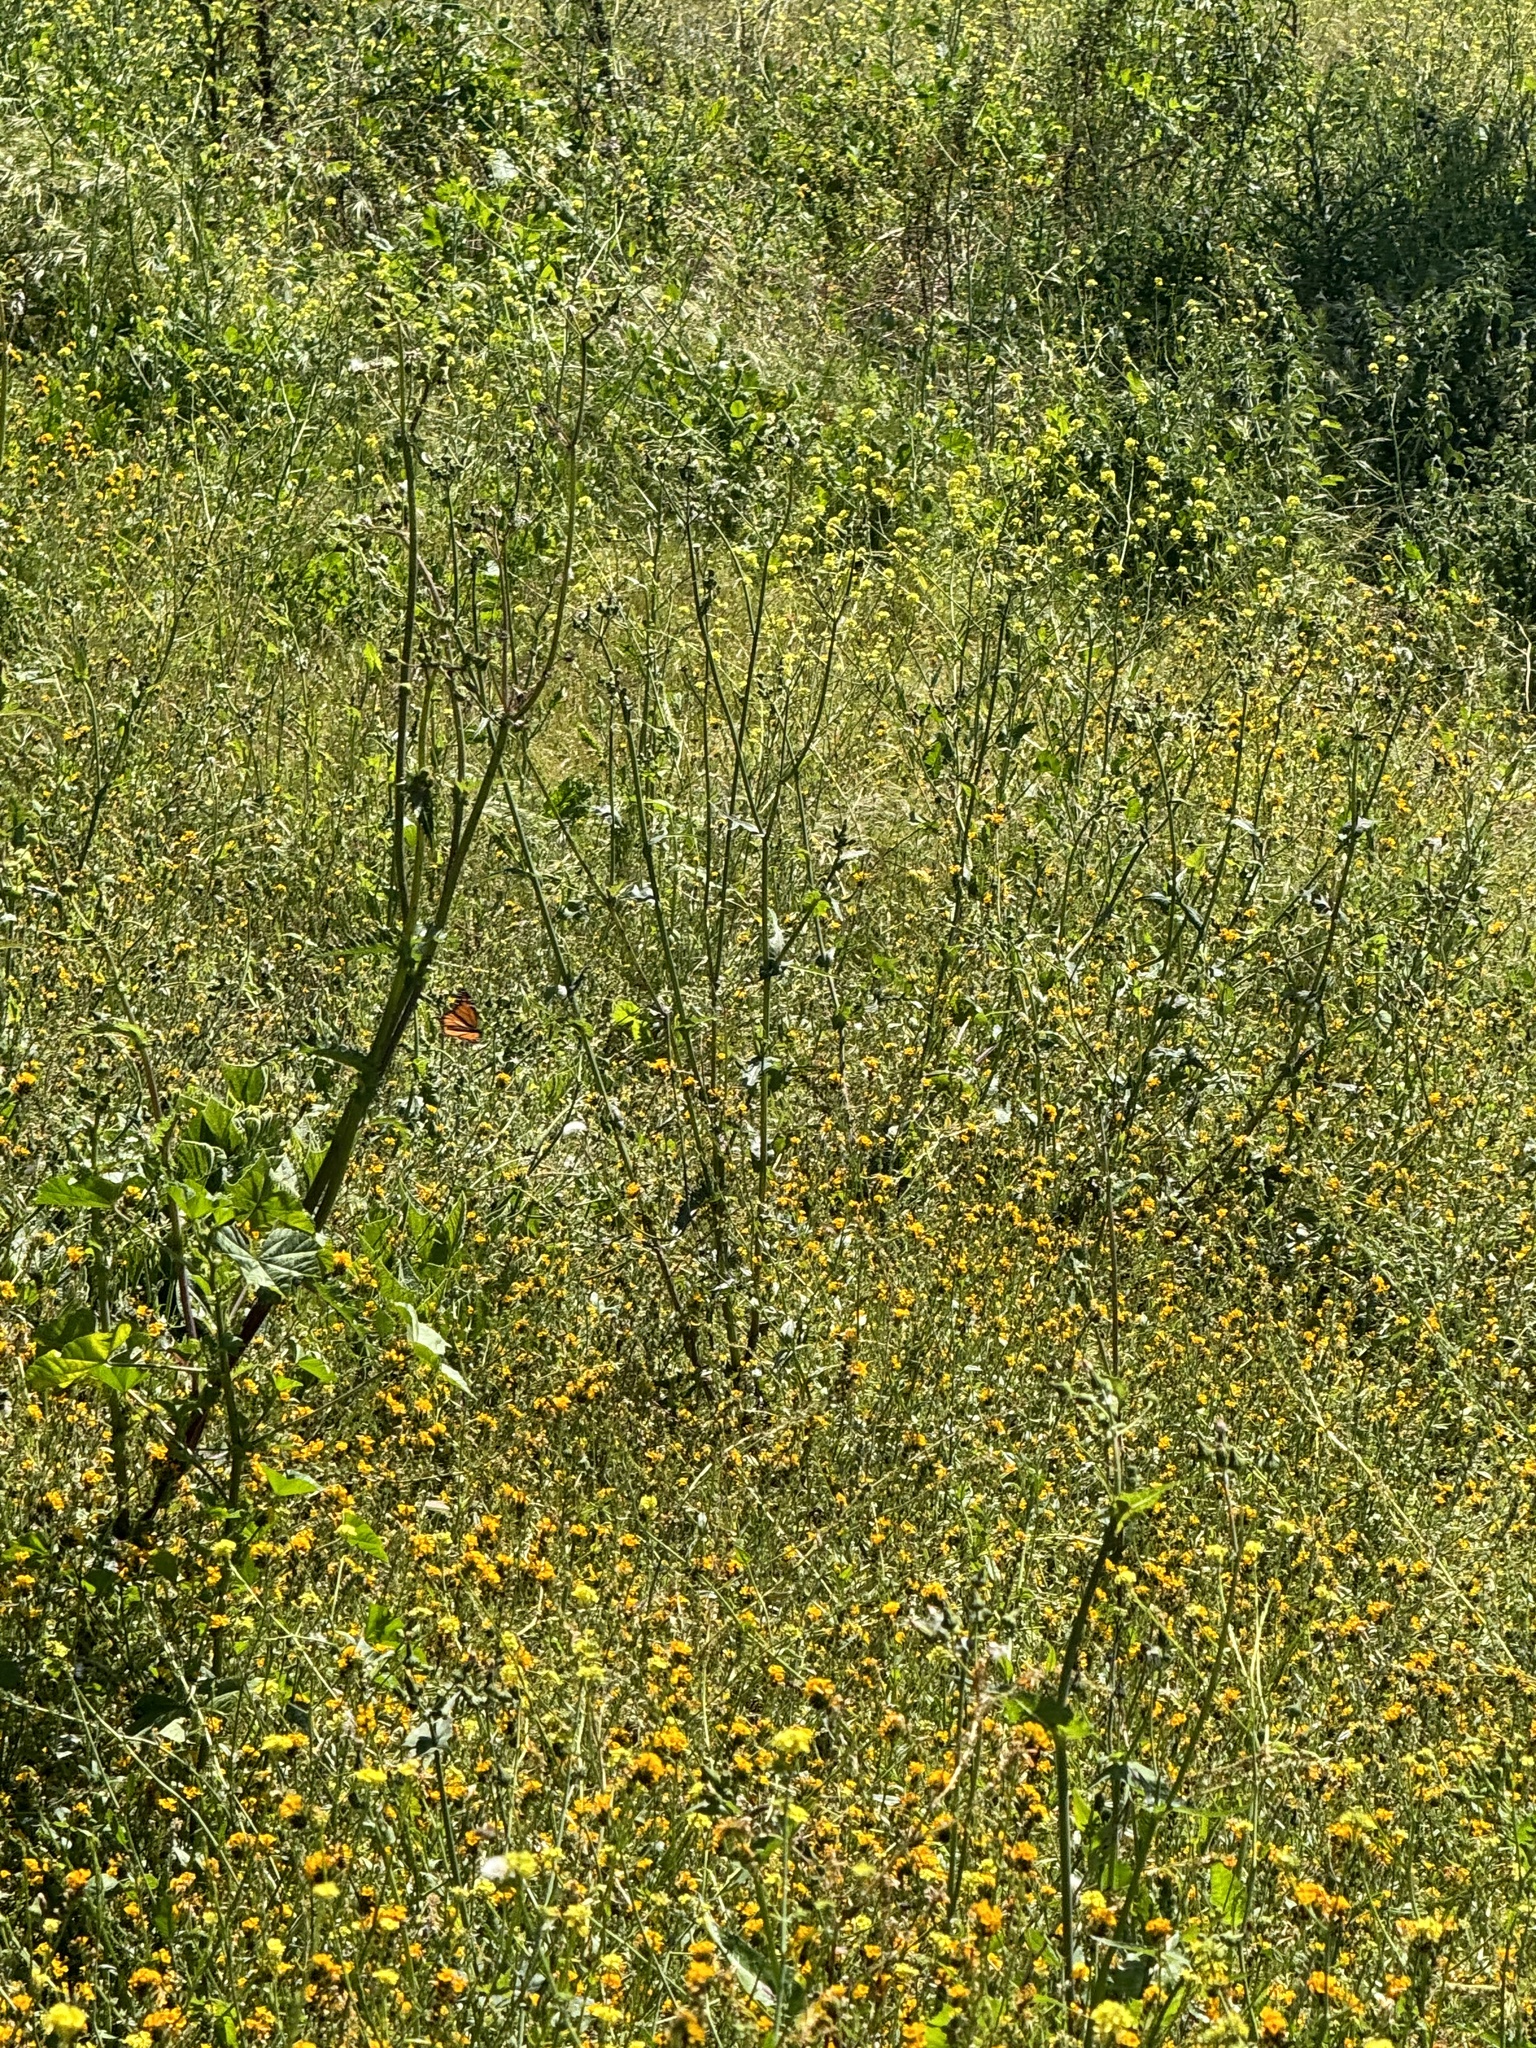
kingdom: Animalia
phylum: Arthropoda
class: Insecta
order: Lepidoptera
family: Nymphalidae
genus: Danaus
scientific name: Danaus plexippus
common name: Monarch
